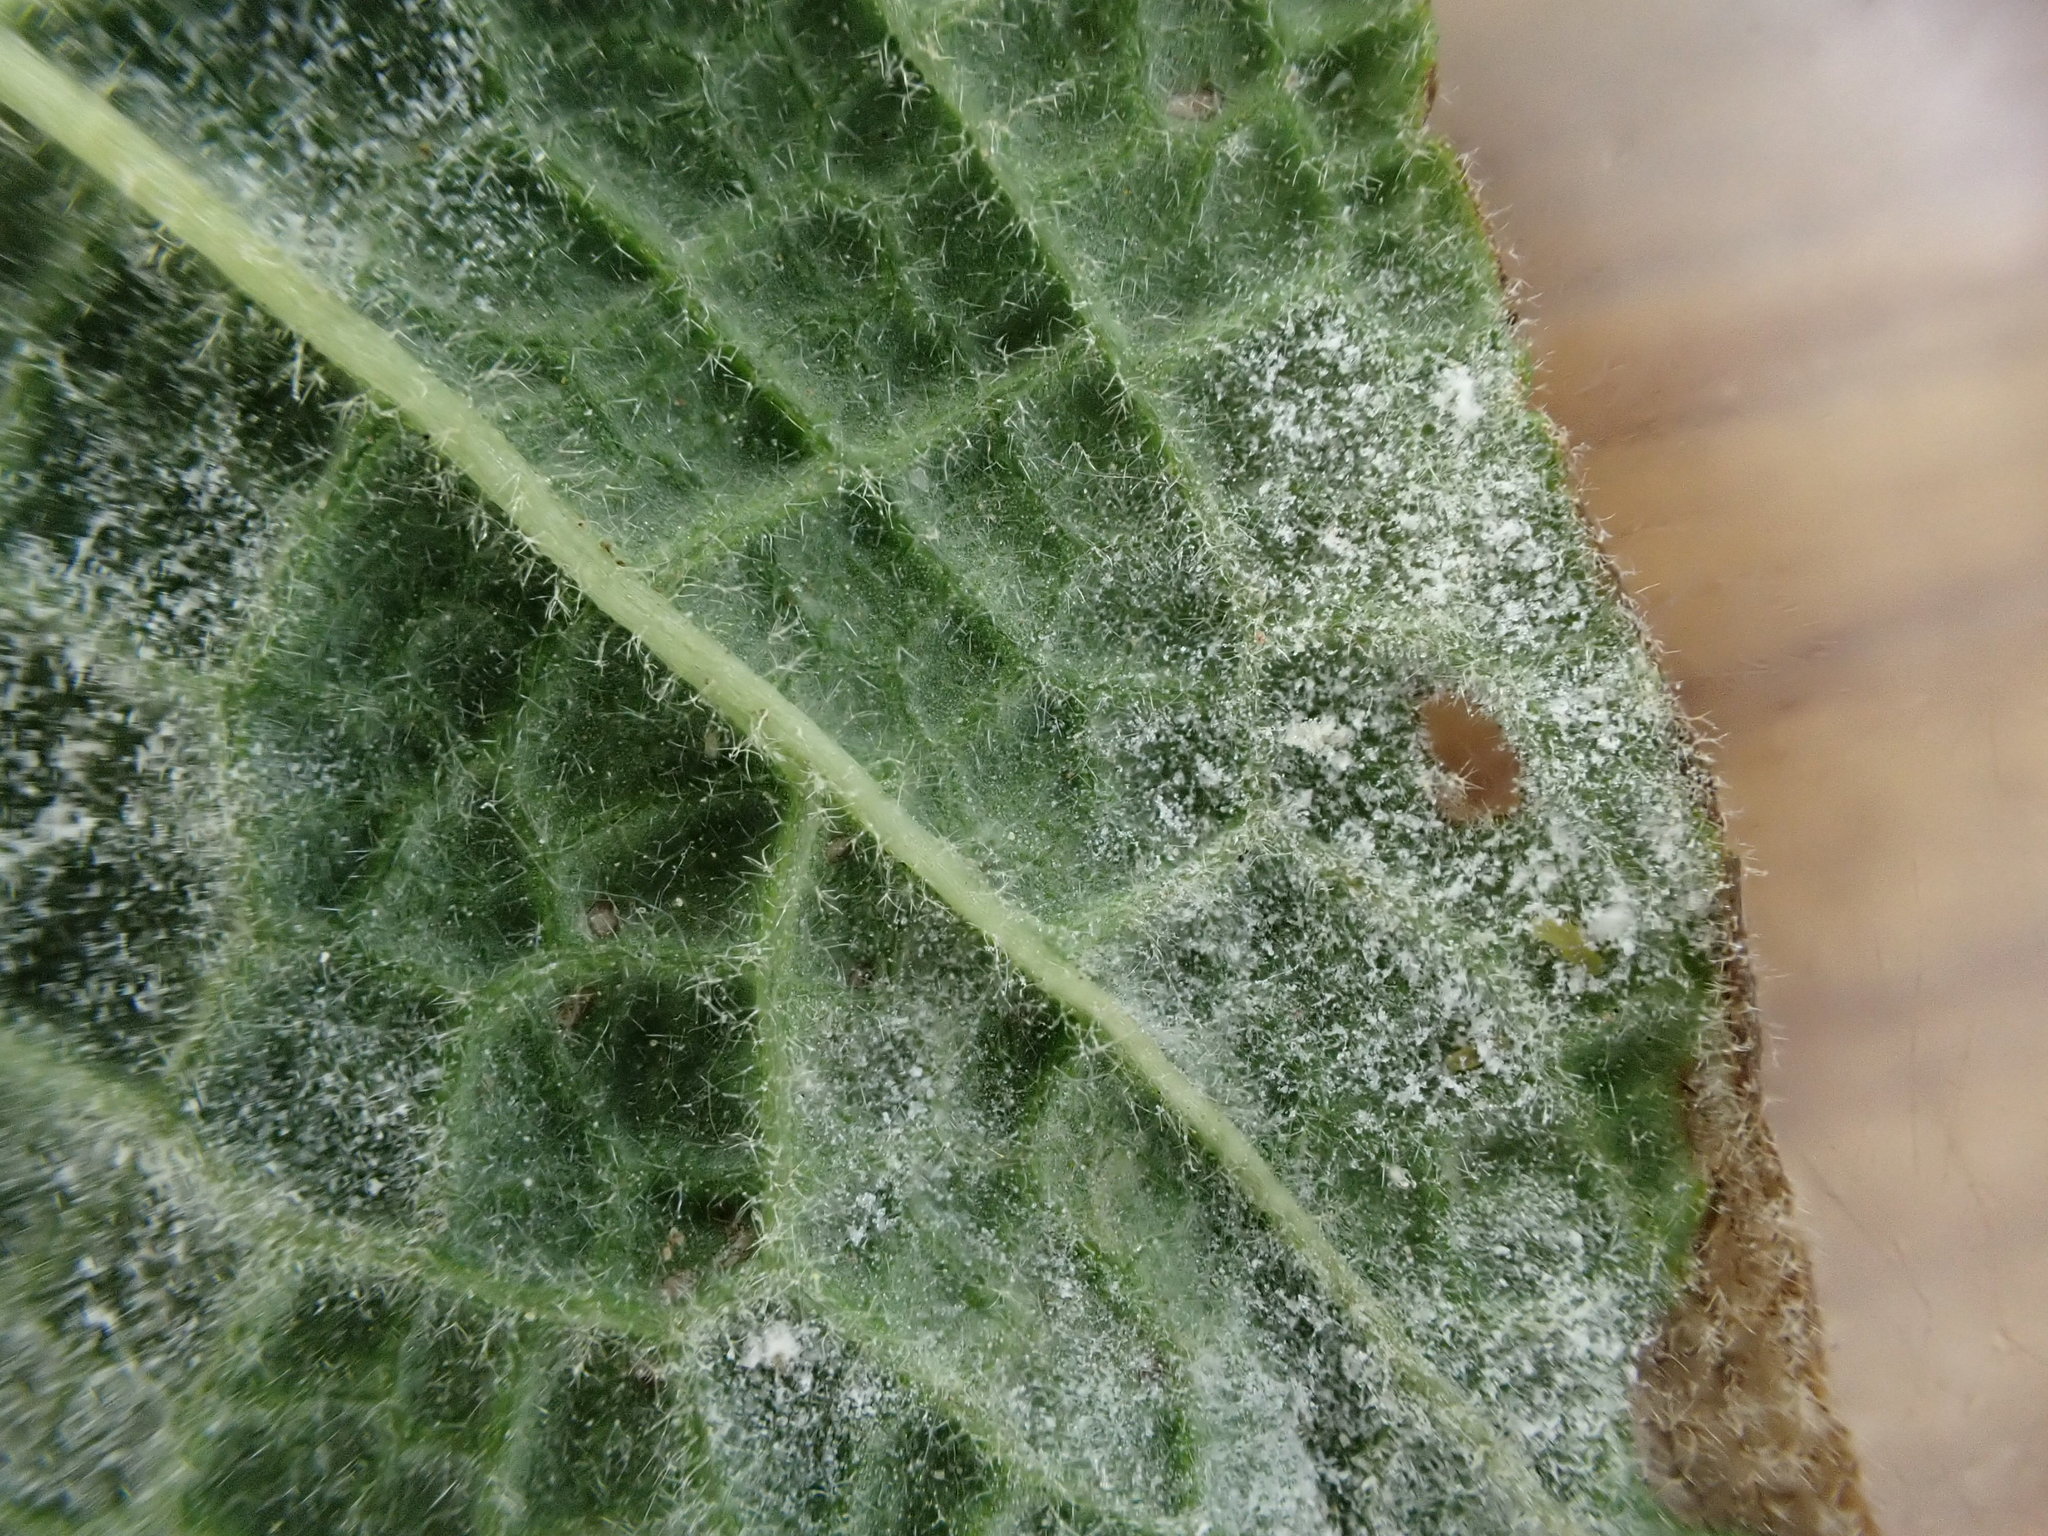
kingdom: Fungi
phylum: Ascomycota
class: Leotiomycetes
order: Helotiales
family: Erysiphaceae
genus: Golovinomyces
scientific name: Golovinomyces asperifoliorum
